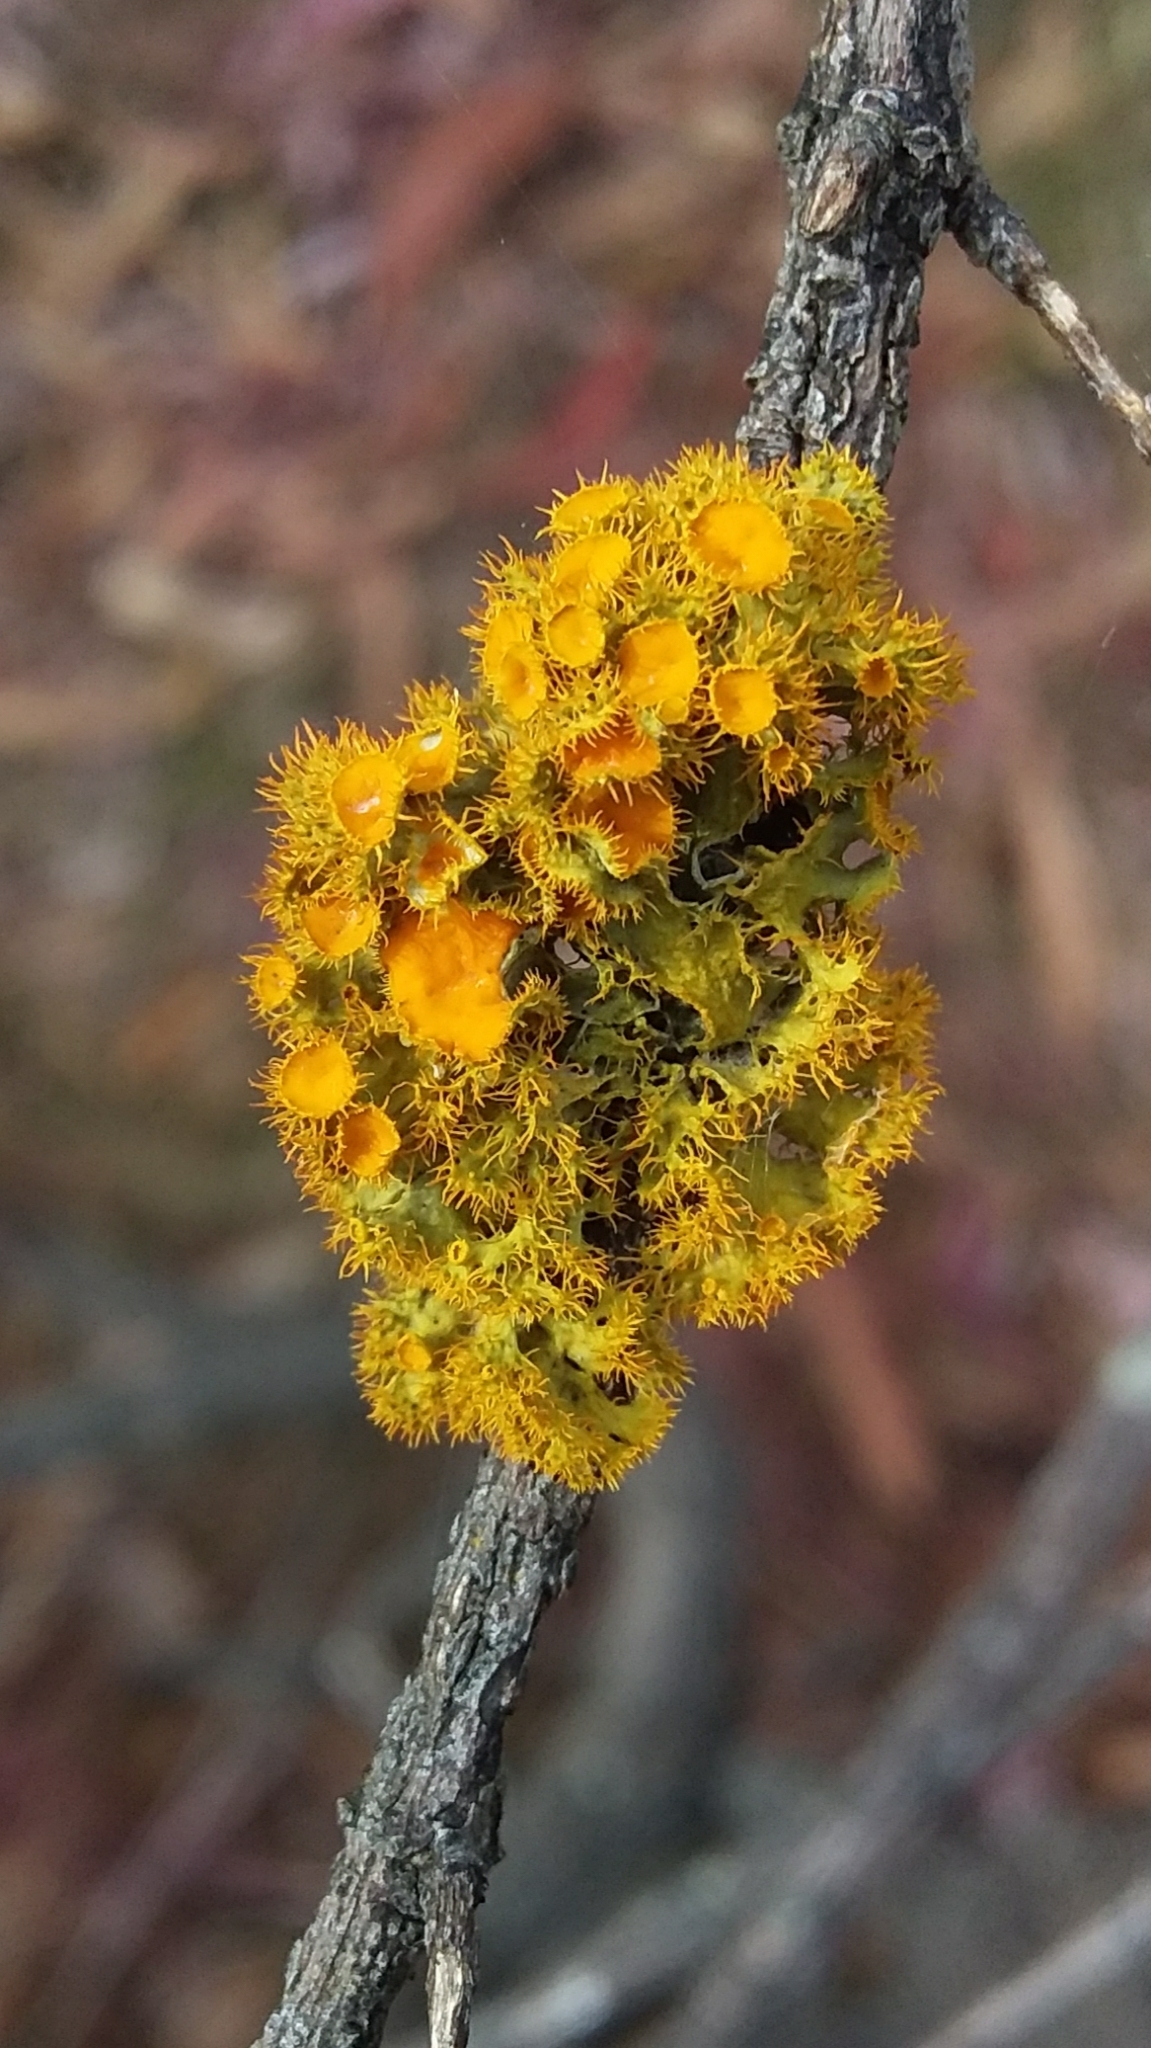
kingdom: Fungi
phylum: Ascomycota
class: Lecanoromycetes
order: Teloschistales
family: Teloschistaceae
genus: Niorma
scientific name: Niorma chrysophthalma
